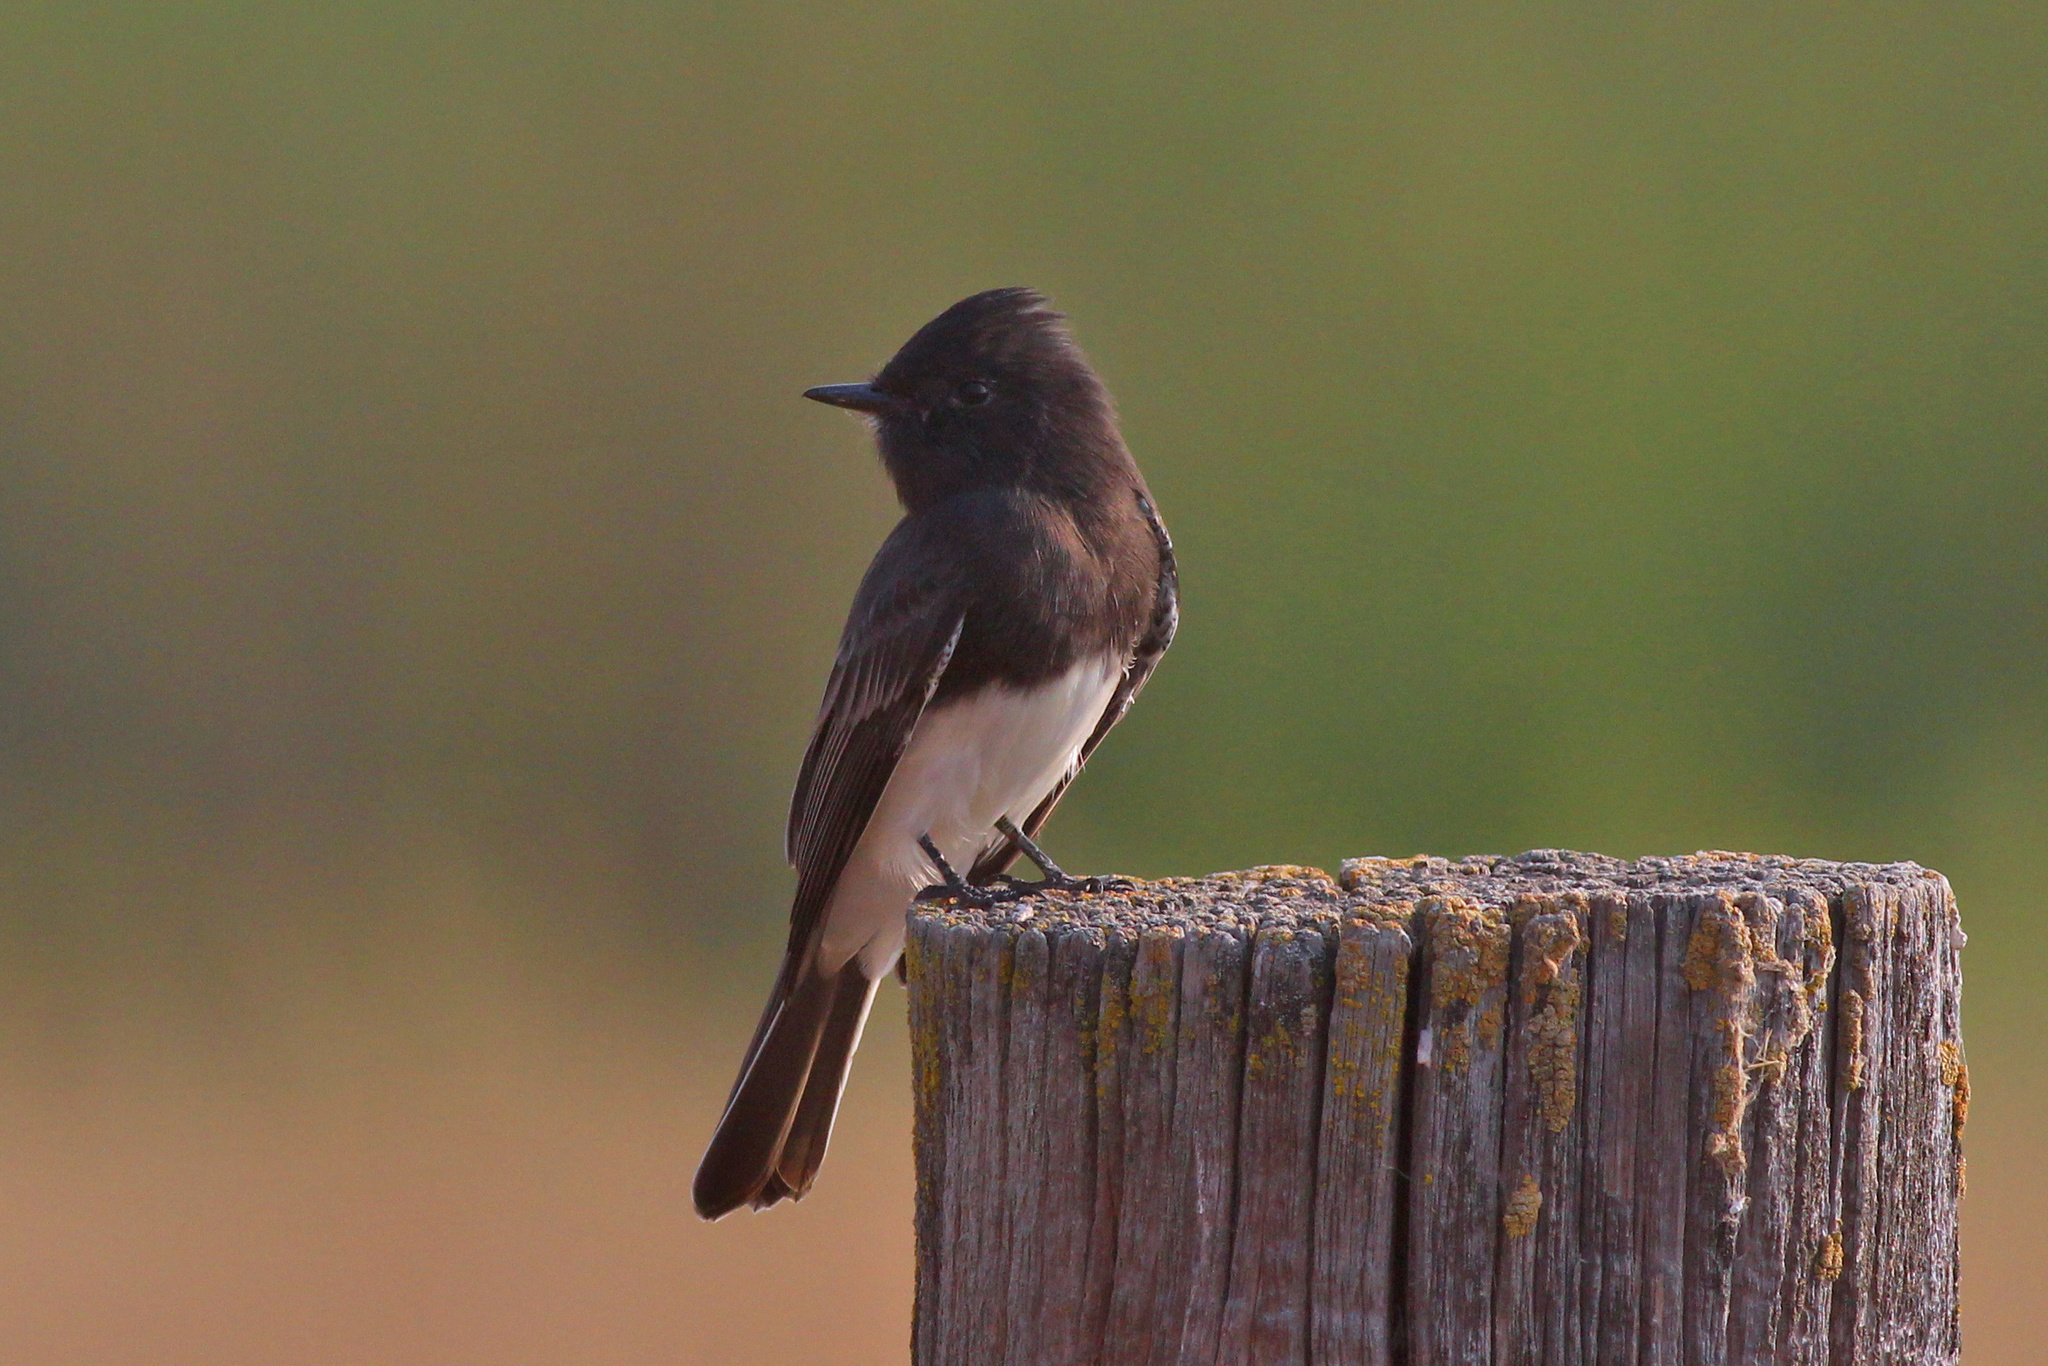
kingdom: Animalia
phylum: Chordata
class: Aves
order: Passeriformes
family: Tyrannidae
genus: Sayornis
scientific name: Sayornis nigricans
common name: Black phoebe
